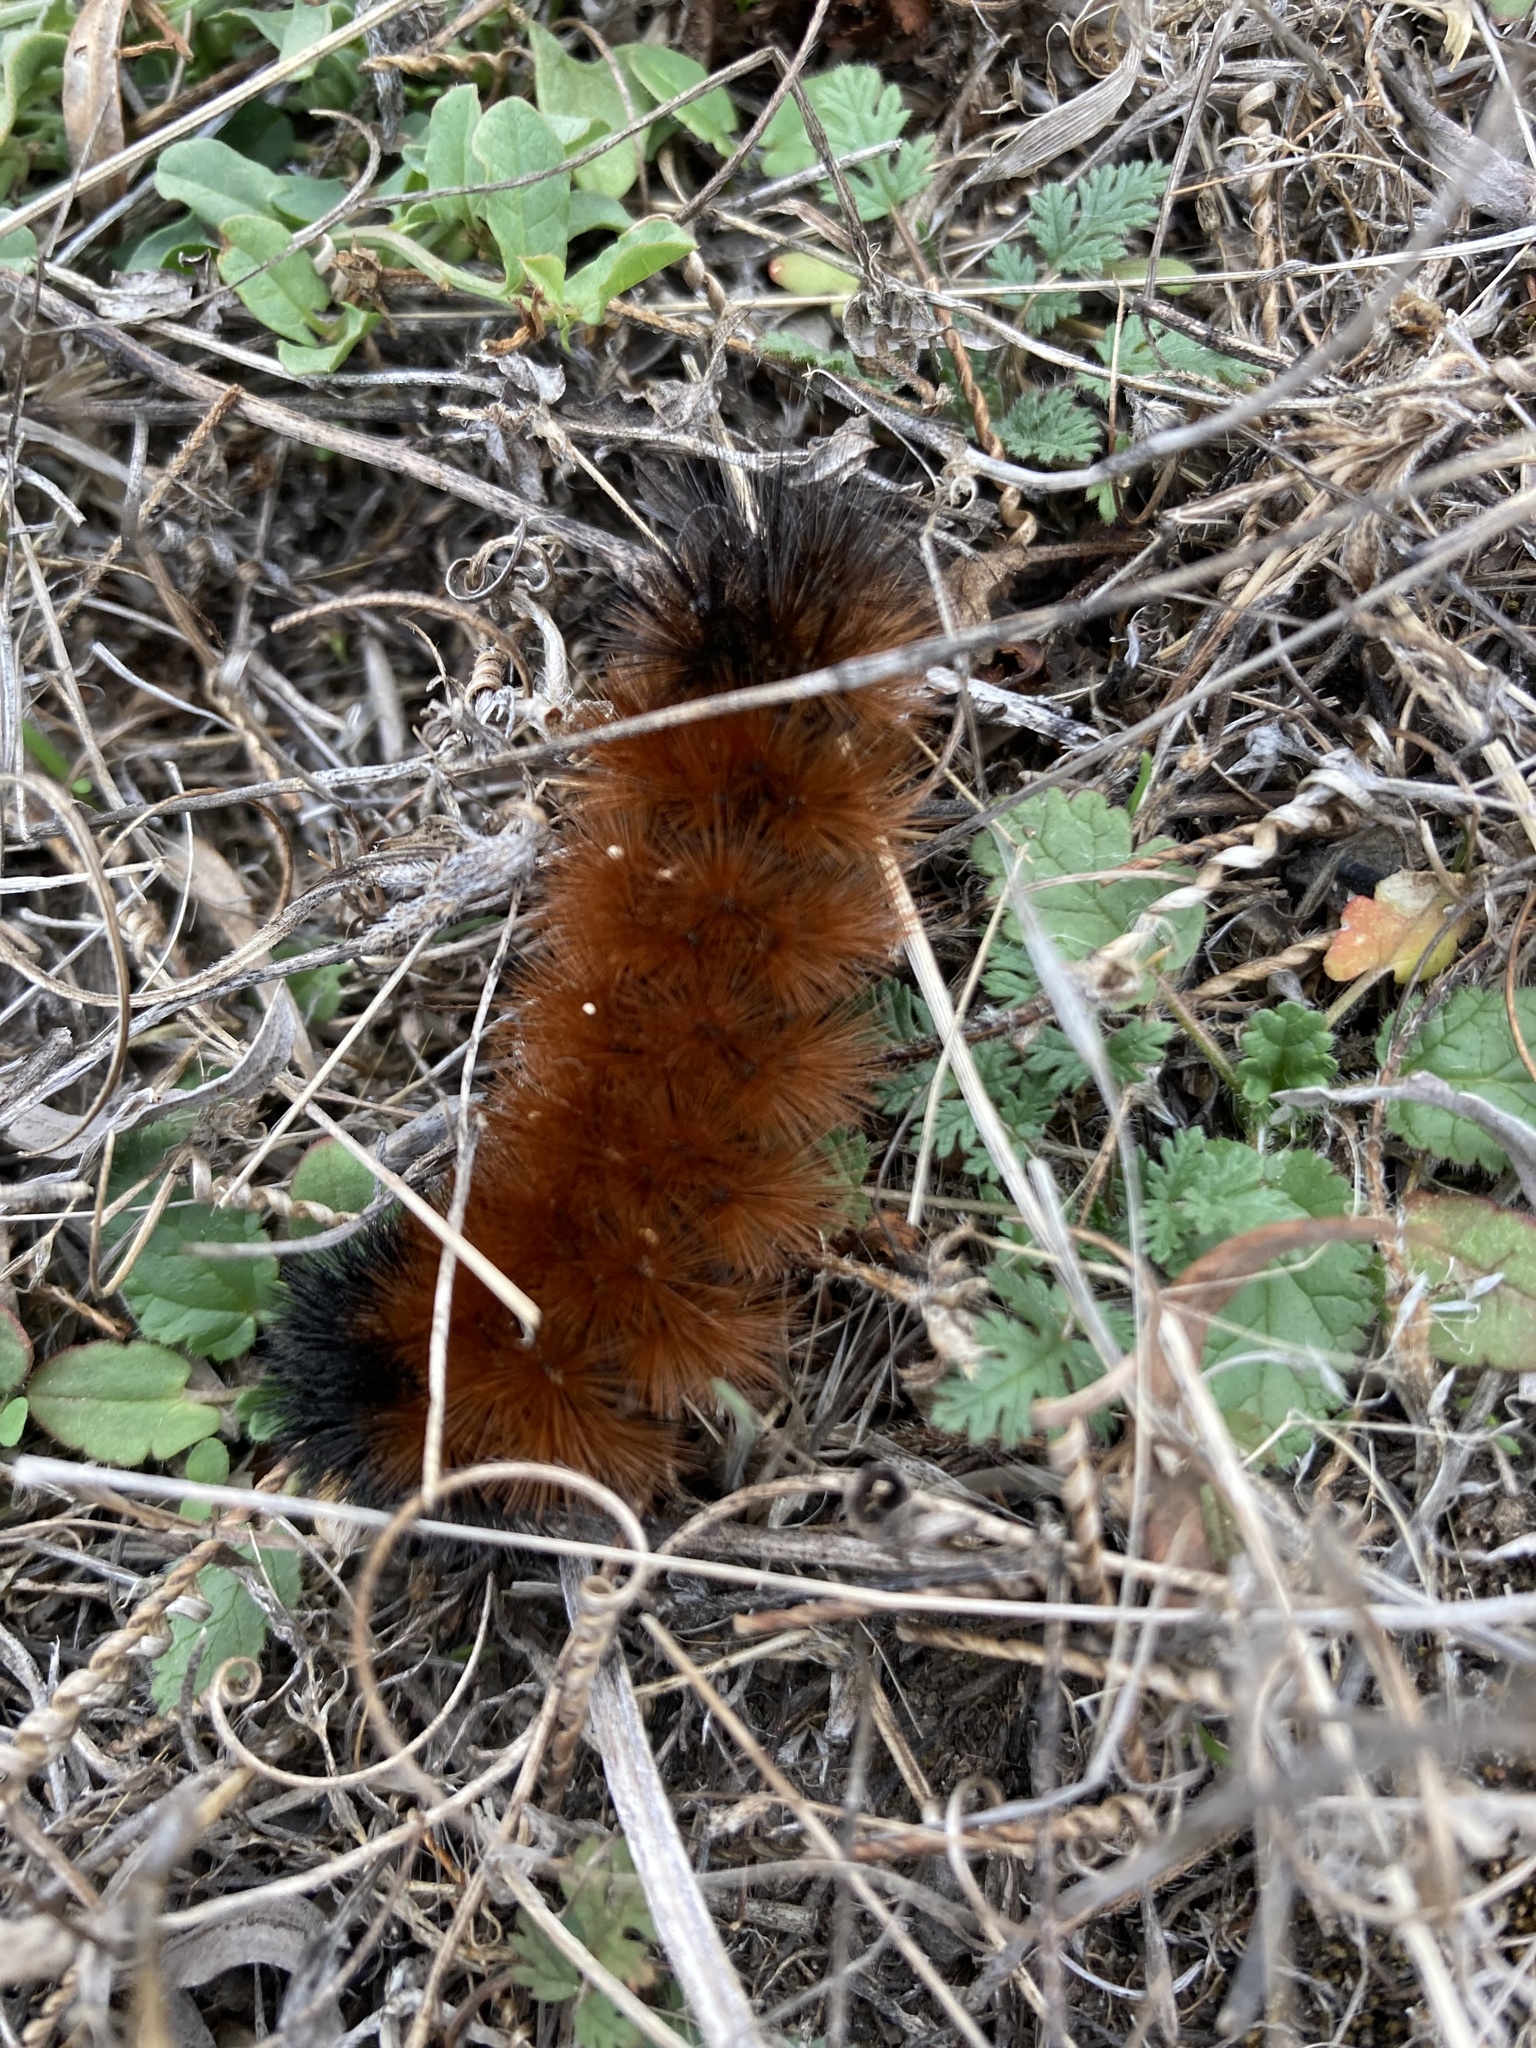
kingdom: Animalia
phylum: Arthropoda
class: Insecta
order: Lepidoptera
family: Erebidae
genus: Pyrrharctia
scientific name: Pyrrharctia isabella
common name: Isabella tiger moth
